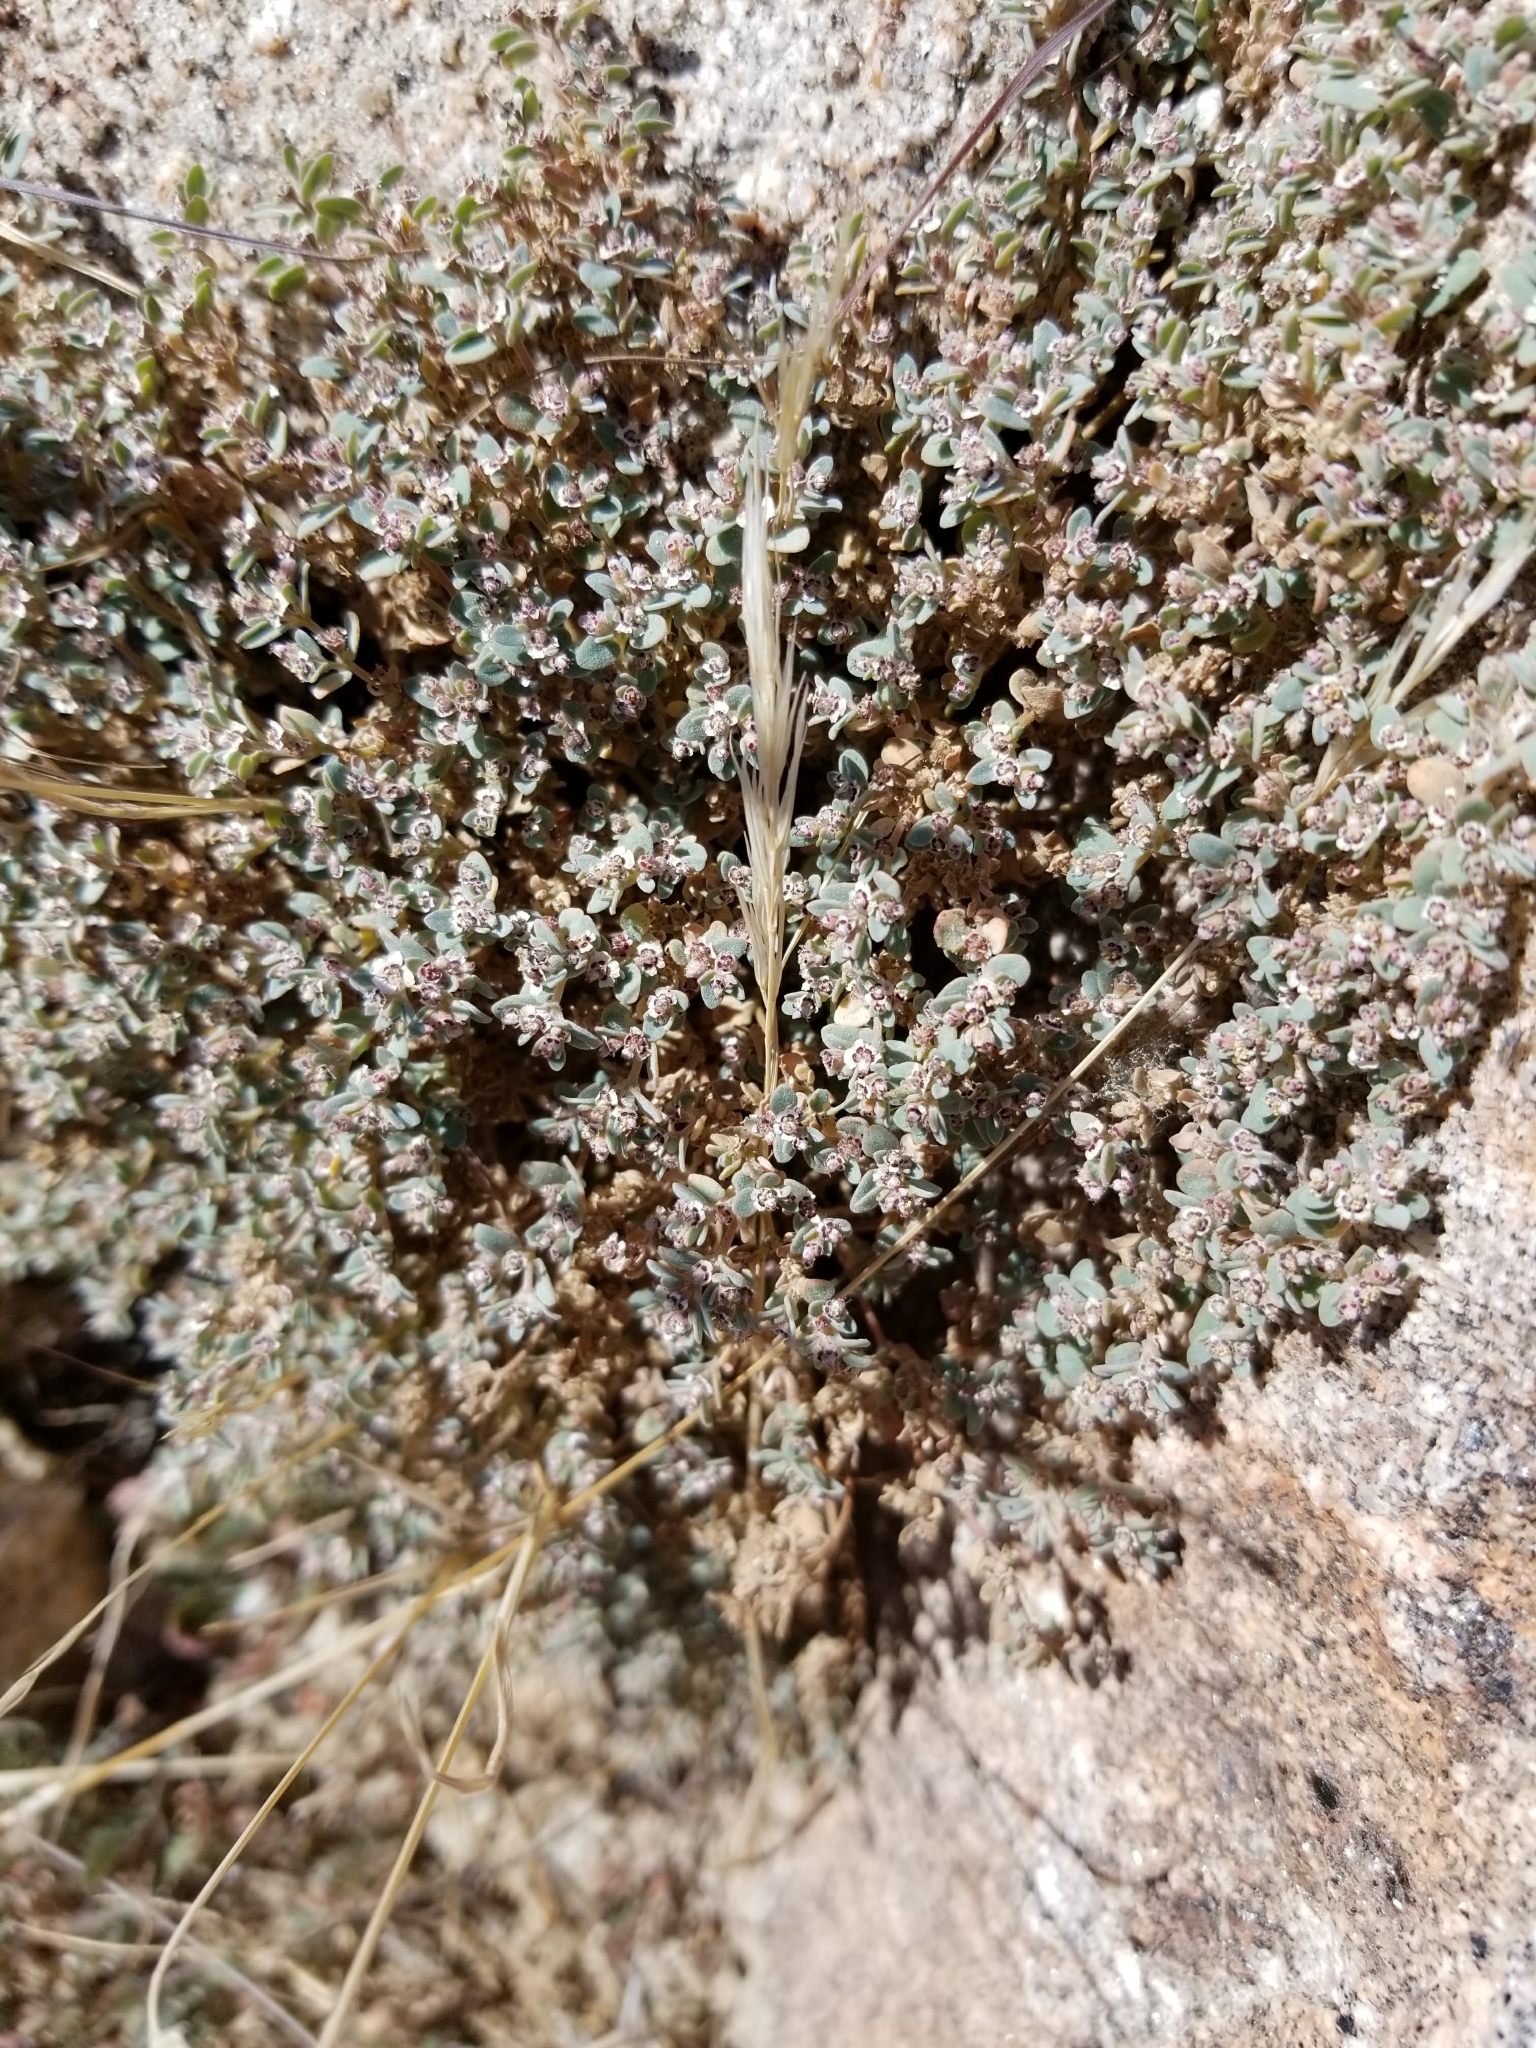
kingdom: Plantae
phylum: Tracheophyta
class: Magnoliopsida
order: Malpighiales
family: Euphorbiaceae
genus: Euphorbia
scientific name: Euphorbia melanadenia
